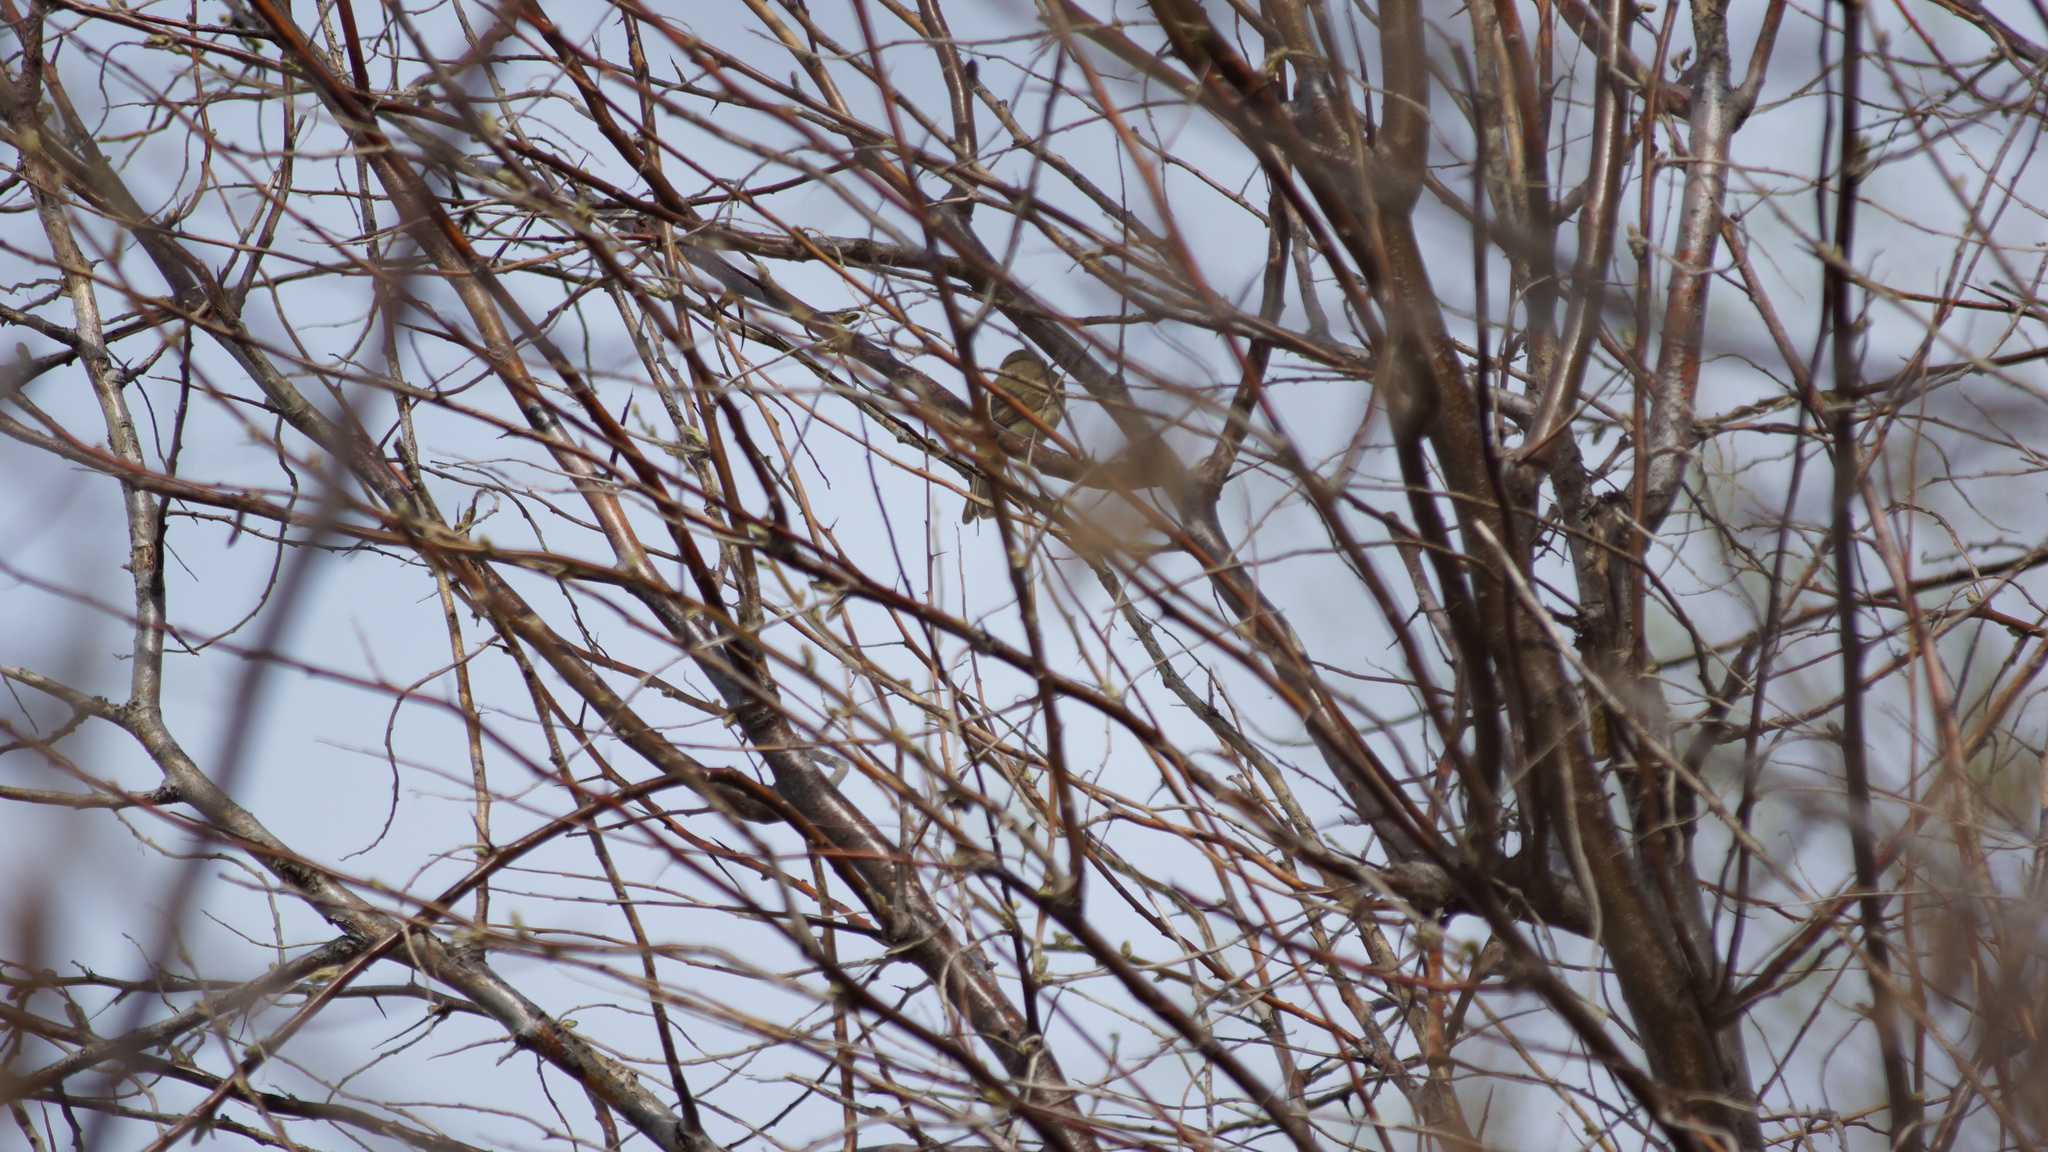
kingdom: Animalia
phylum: Chordata
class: Aves
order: Passeriformes
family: Phylloscopidae
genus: Phylloscopus
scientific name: Phylloscopus collybita
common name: Common chiffchaff
